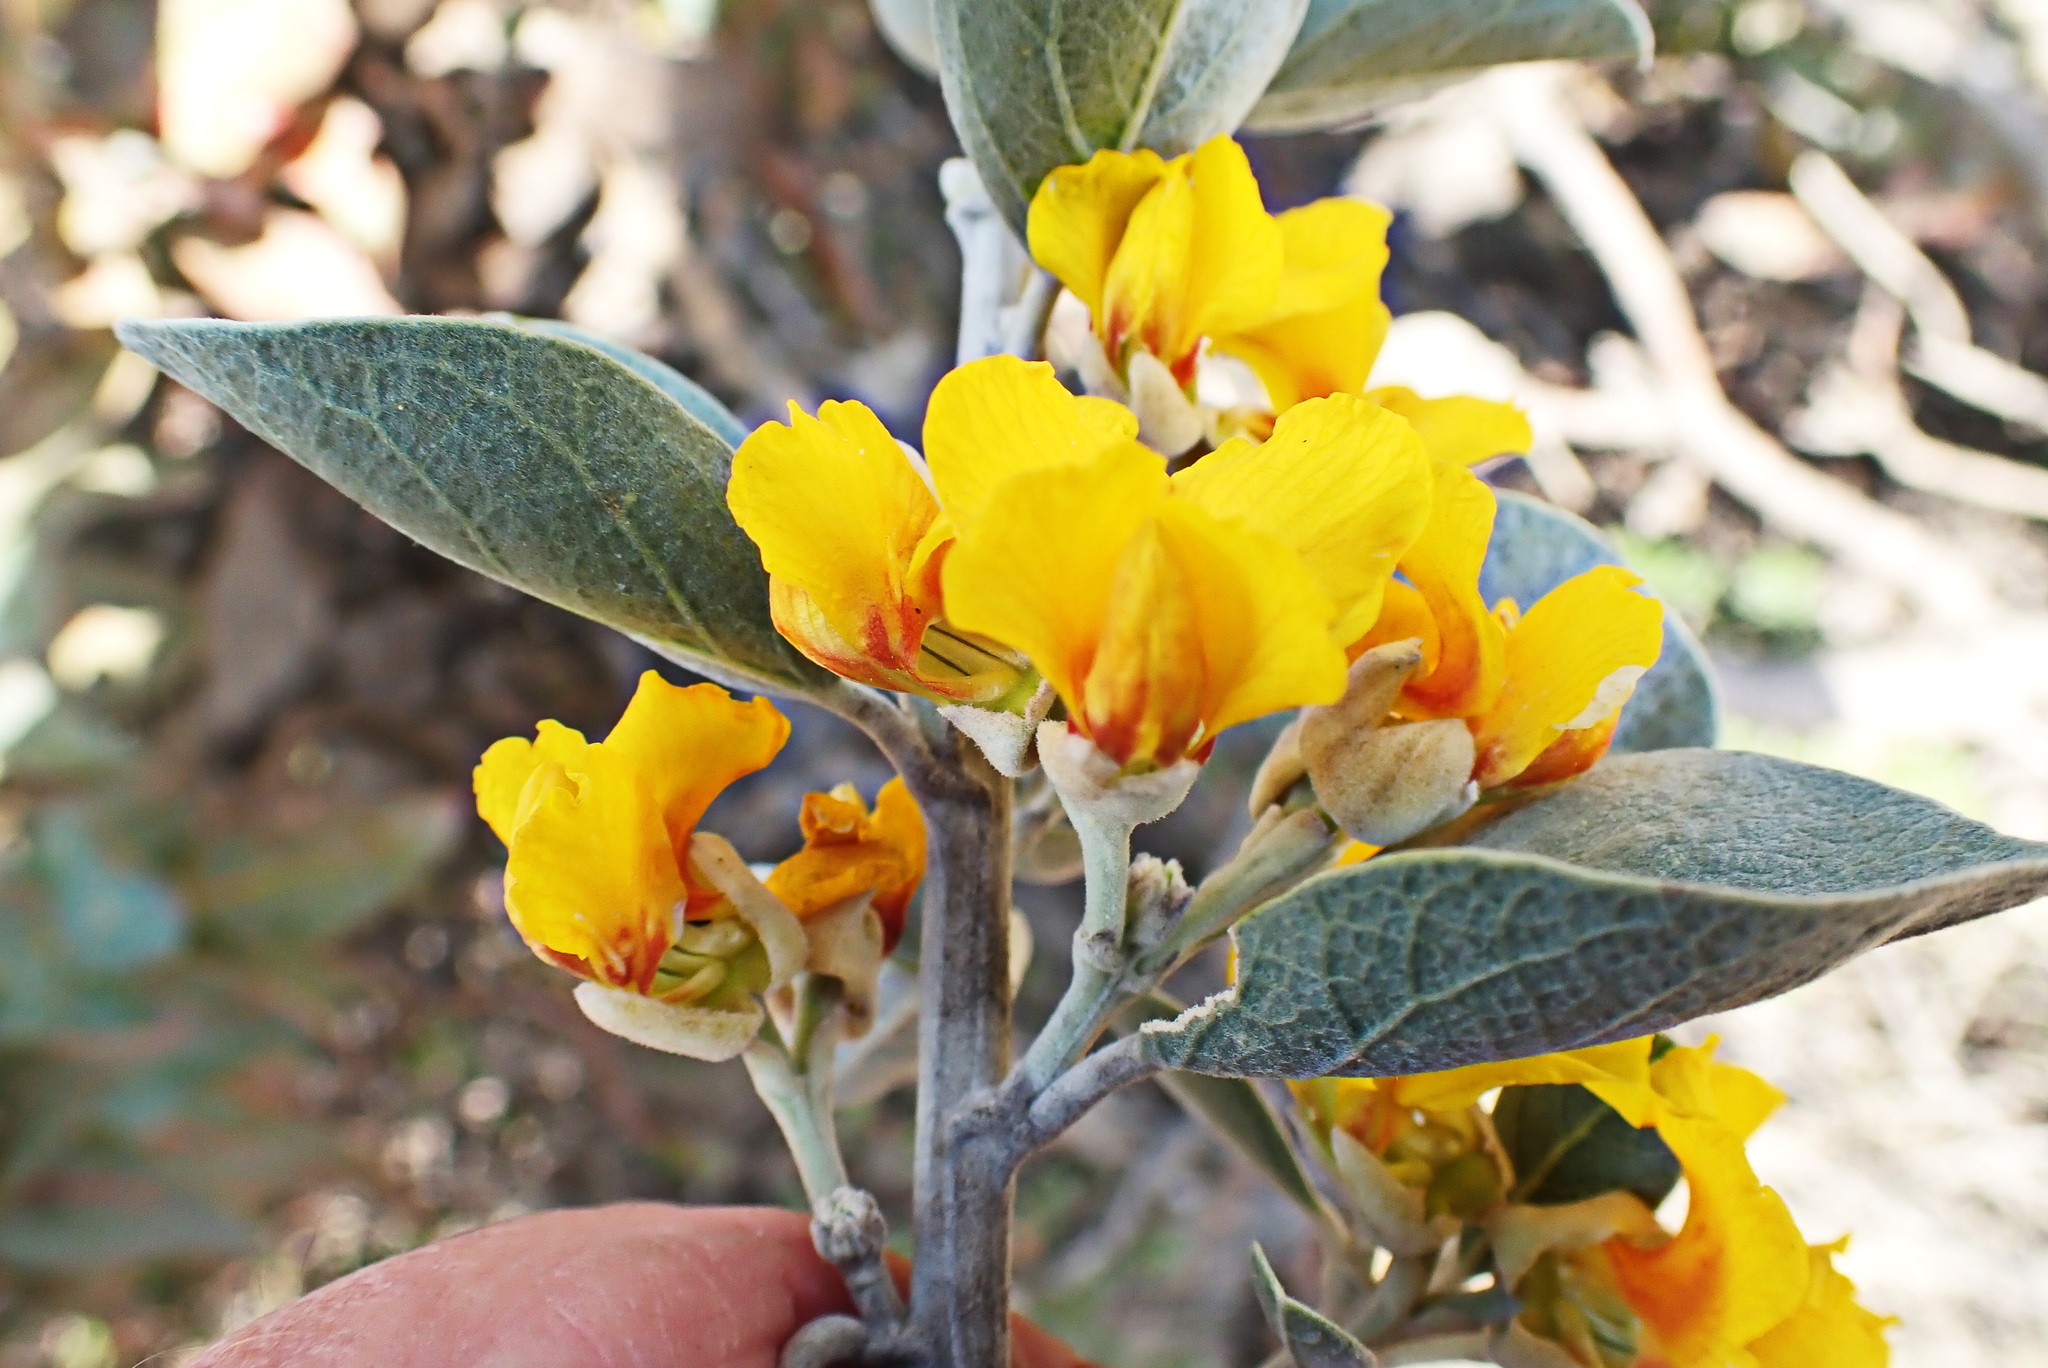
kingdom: Plantae
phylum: Tracheophyta
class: Magnoliopsida
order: Fabales
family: Fabaceae
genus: Stirtonanthus
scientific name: Stirtonanthus taylorianus
